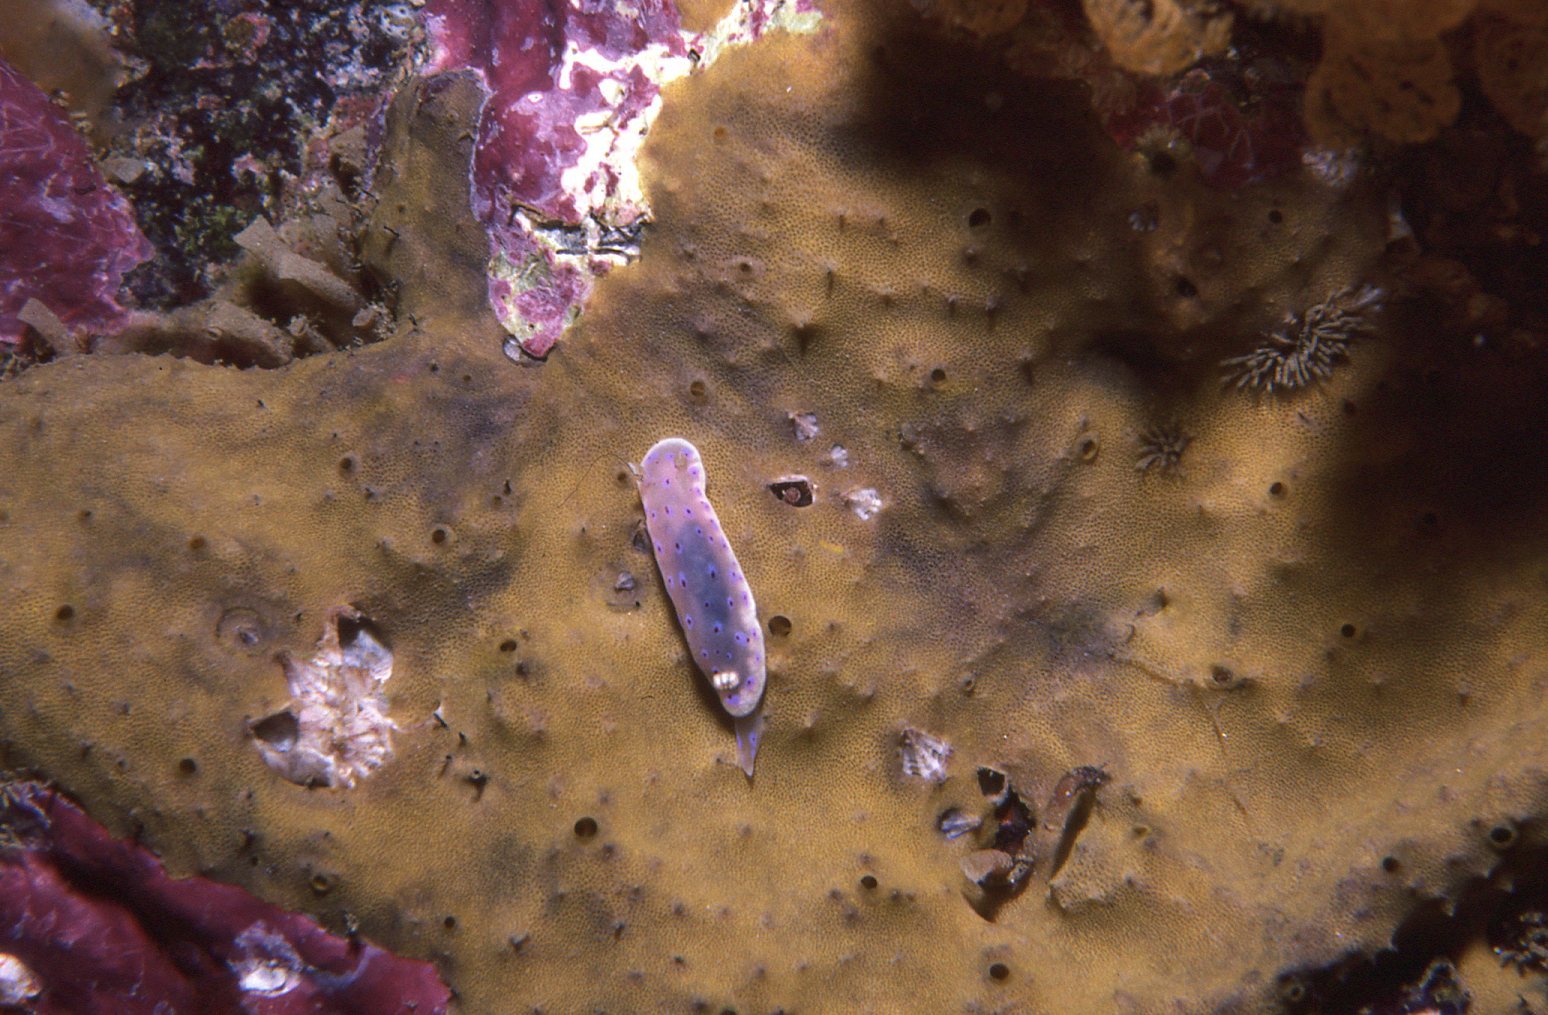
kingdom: Animalia
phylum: Mollusca
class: Gastropoda
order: Nudibranchia
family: Chromodorididae
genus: Goniobranchus
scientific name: Goniobranchus thompsoni
